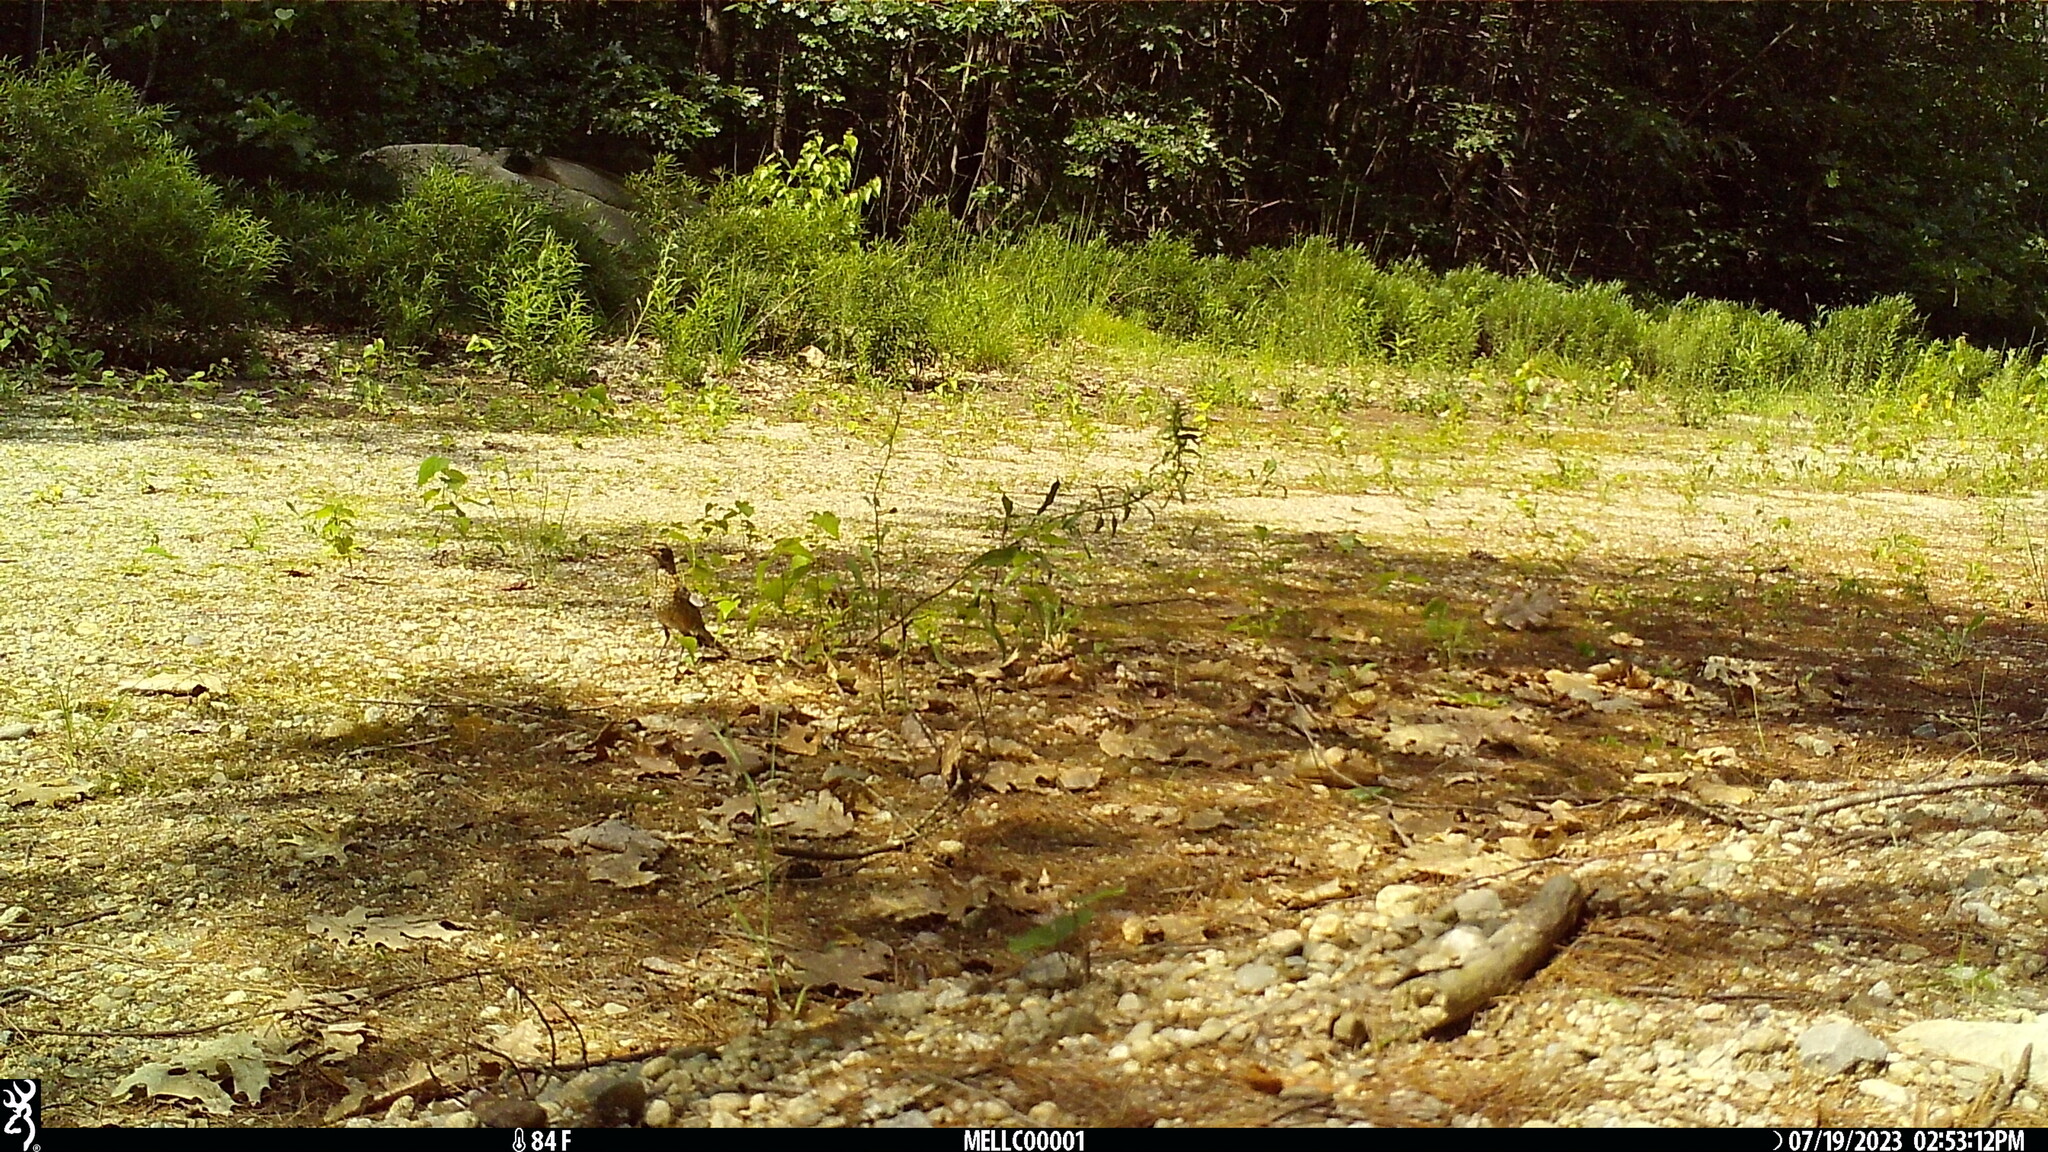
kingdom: Animalia
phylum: Chordata
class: Aves
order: Passeriformes
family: Turdidae
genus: Turdus
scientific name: Turdus migratorius
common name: American robin
